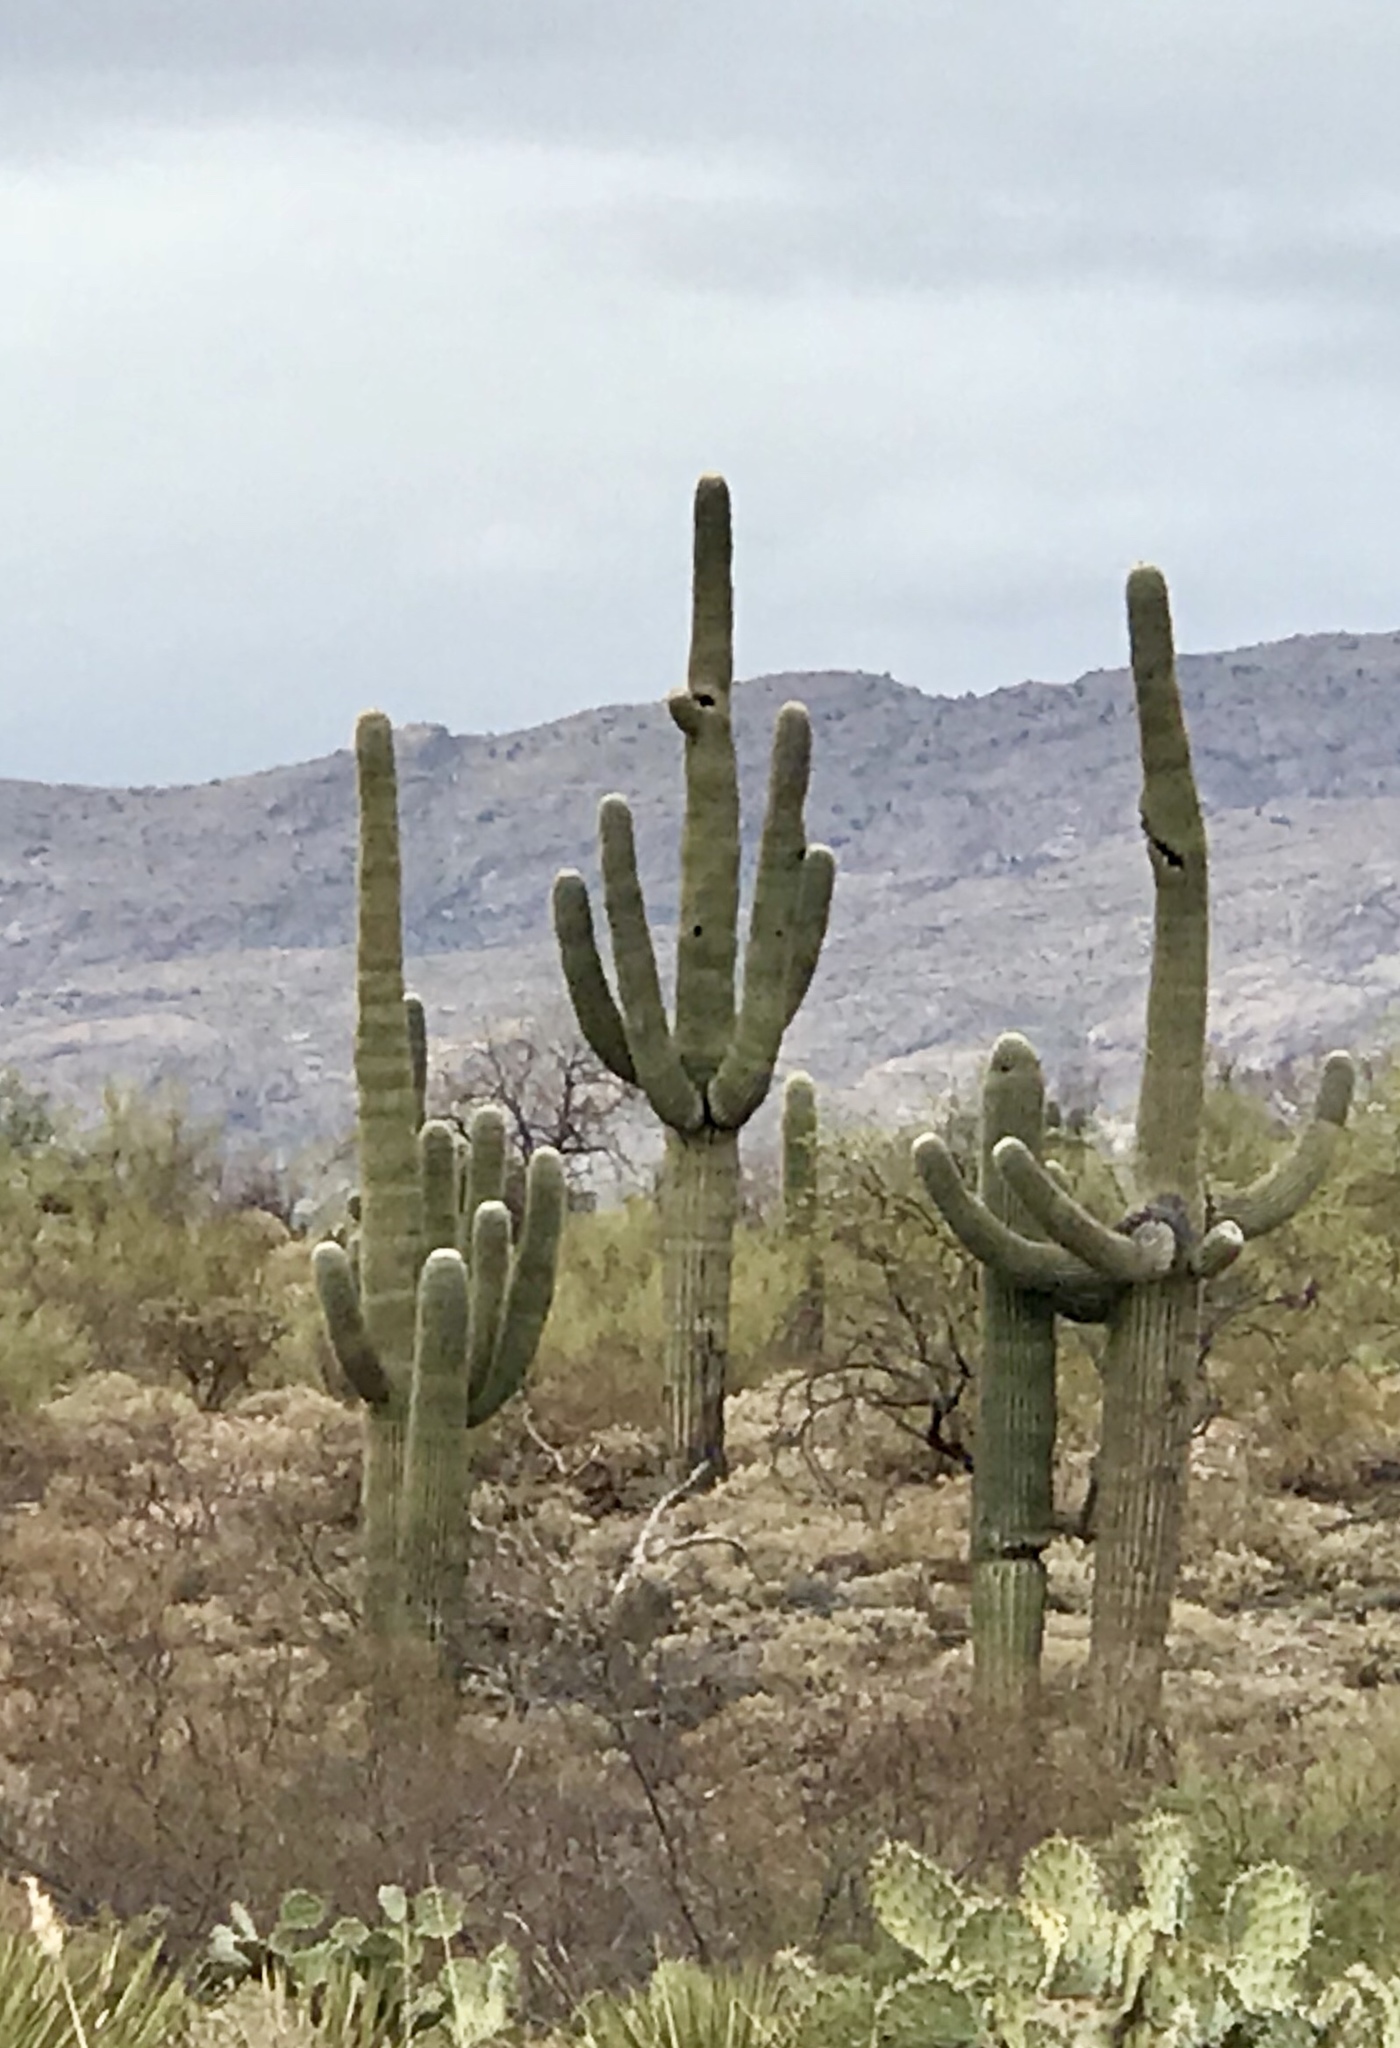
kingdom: Plantae
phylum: Tracheophyta
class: Magnoliopsida
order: Caryophyllales
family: Cactaceae
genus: Carnegiea
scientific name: Carnegiea gigantea
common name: Saguaro
